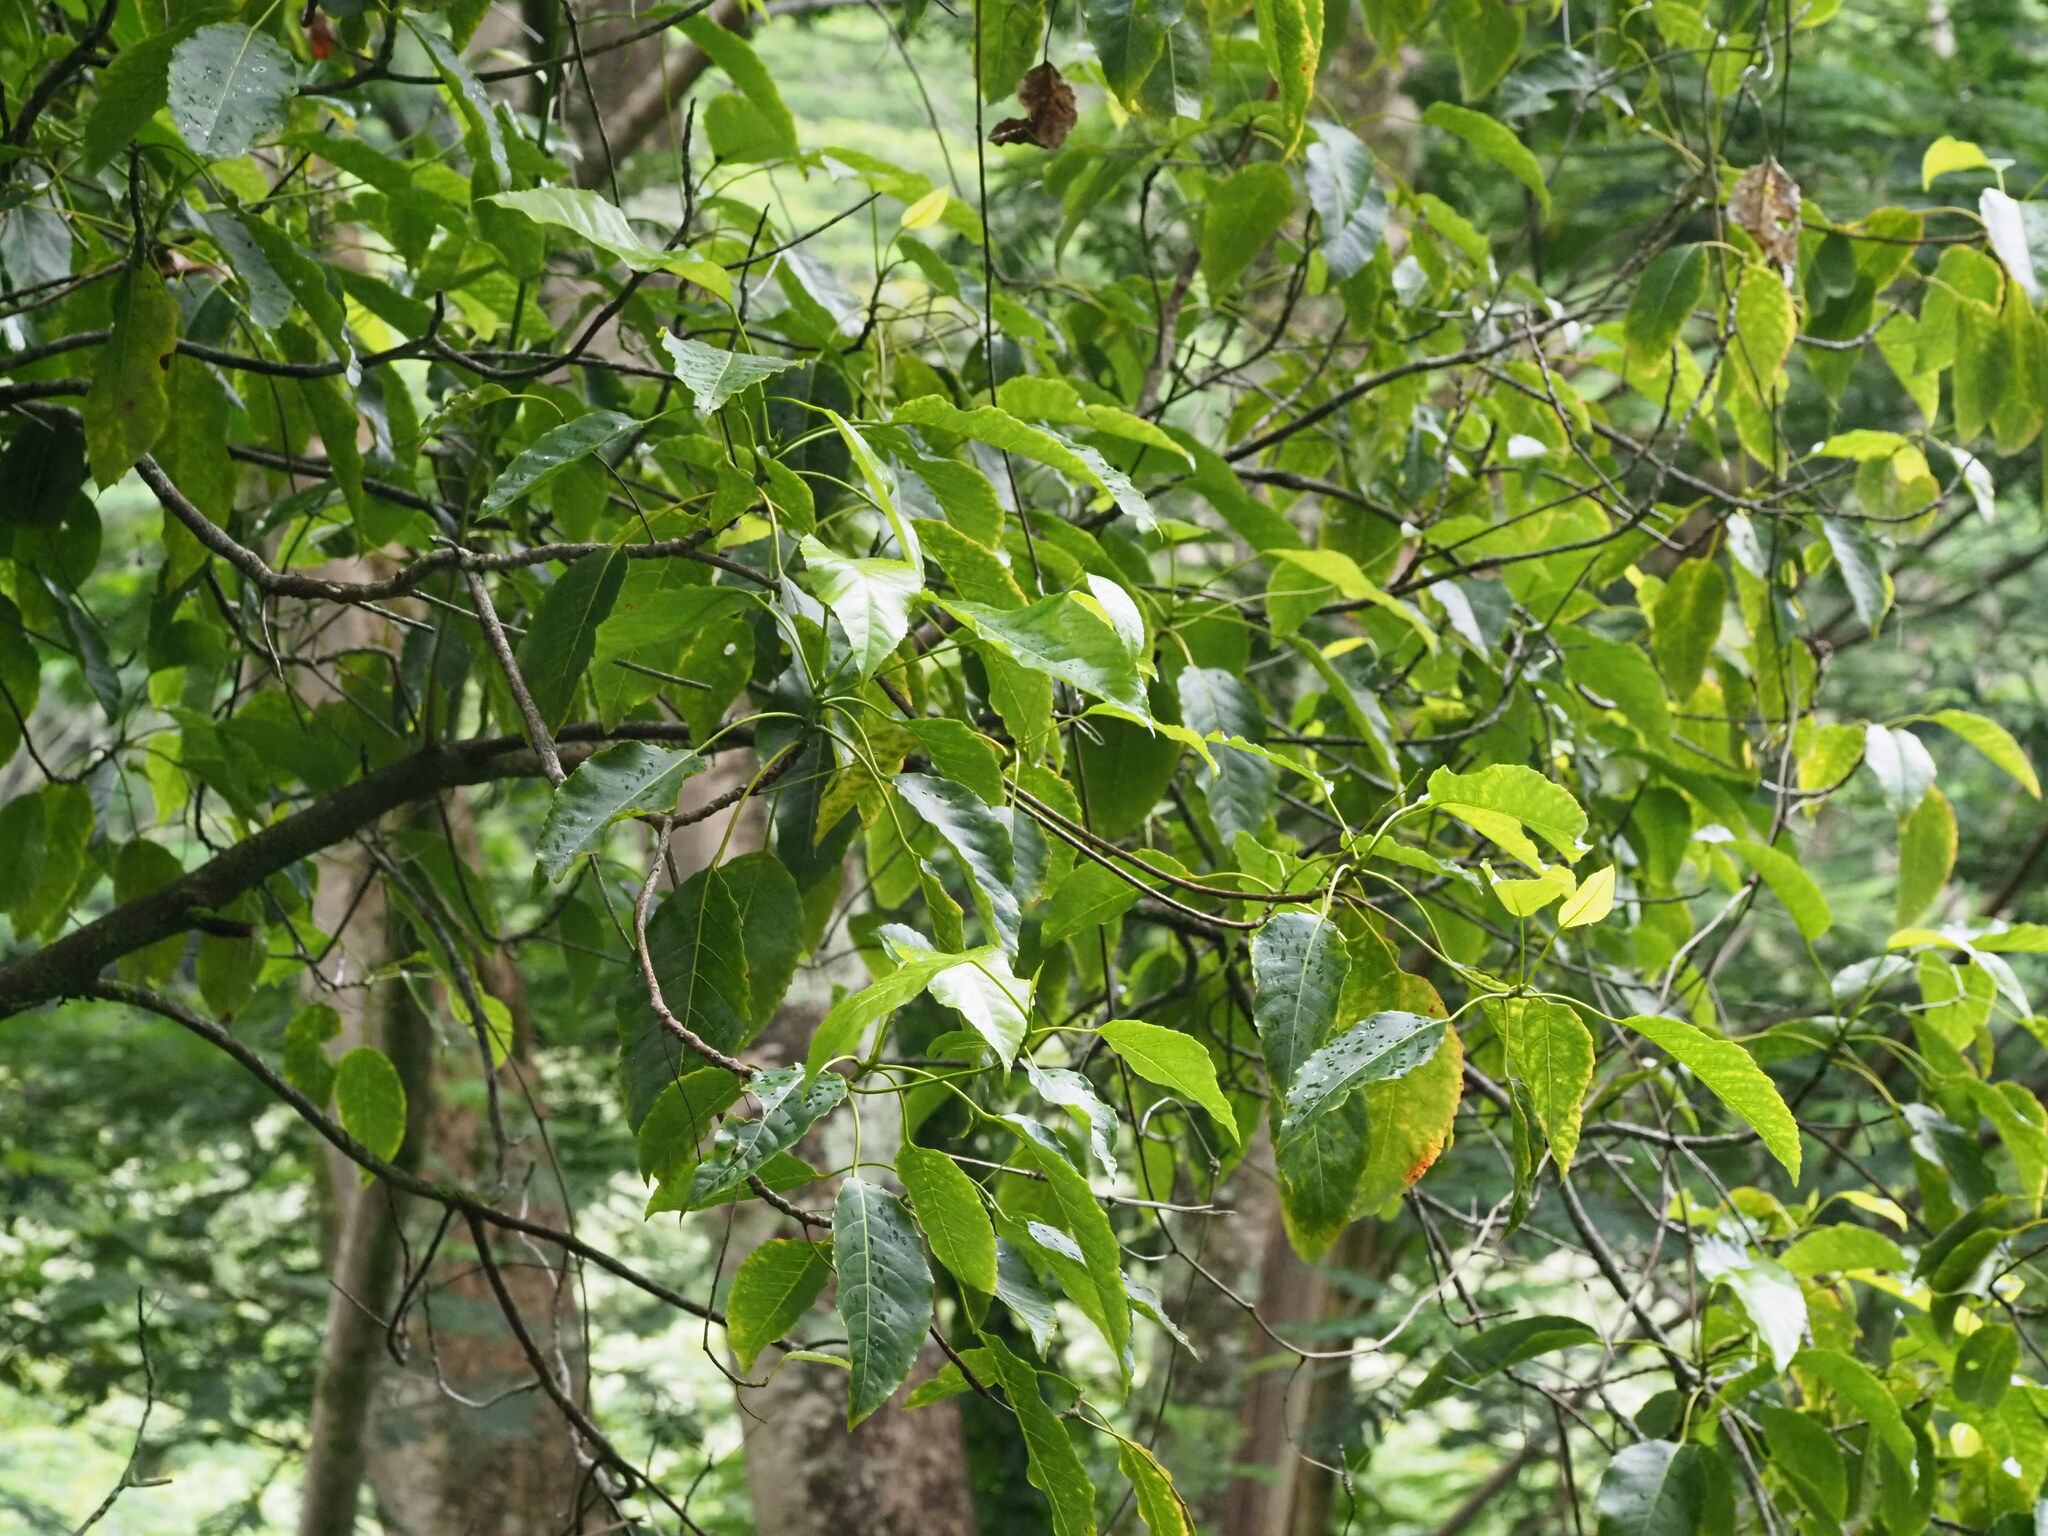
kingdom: Plantae
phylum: Tracheophyta
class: Magnoliopsida
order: Oxalidales
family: Elaeocarpaceae
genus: Elaeocarpus
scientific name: Elaeocarpus bifidus
